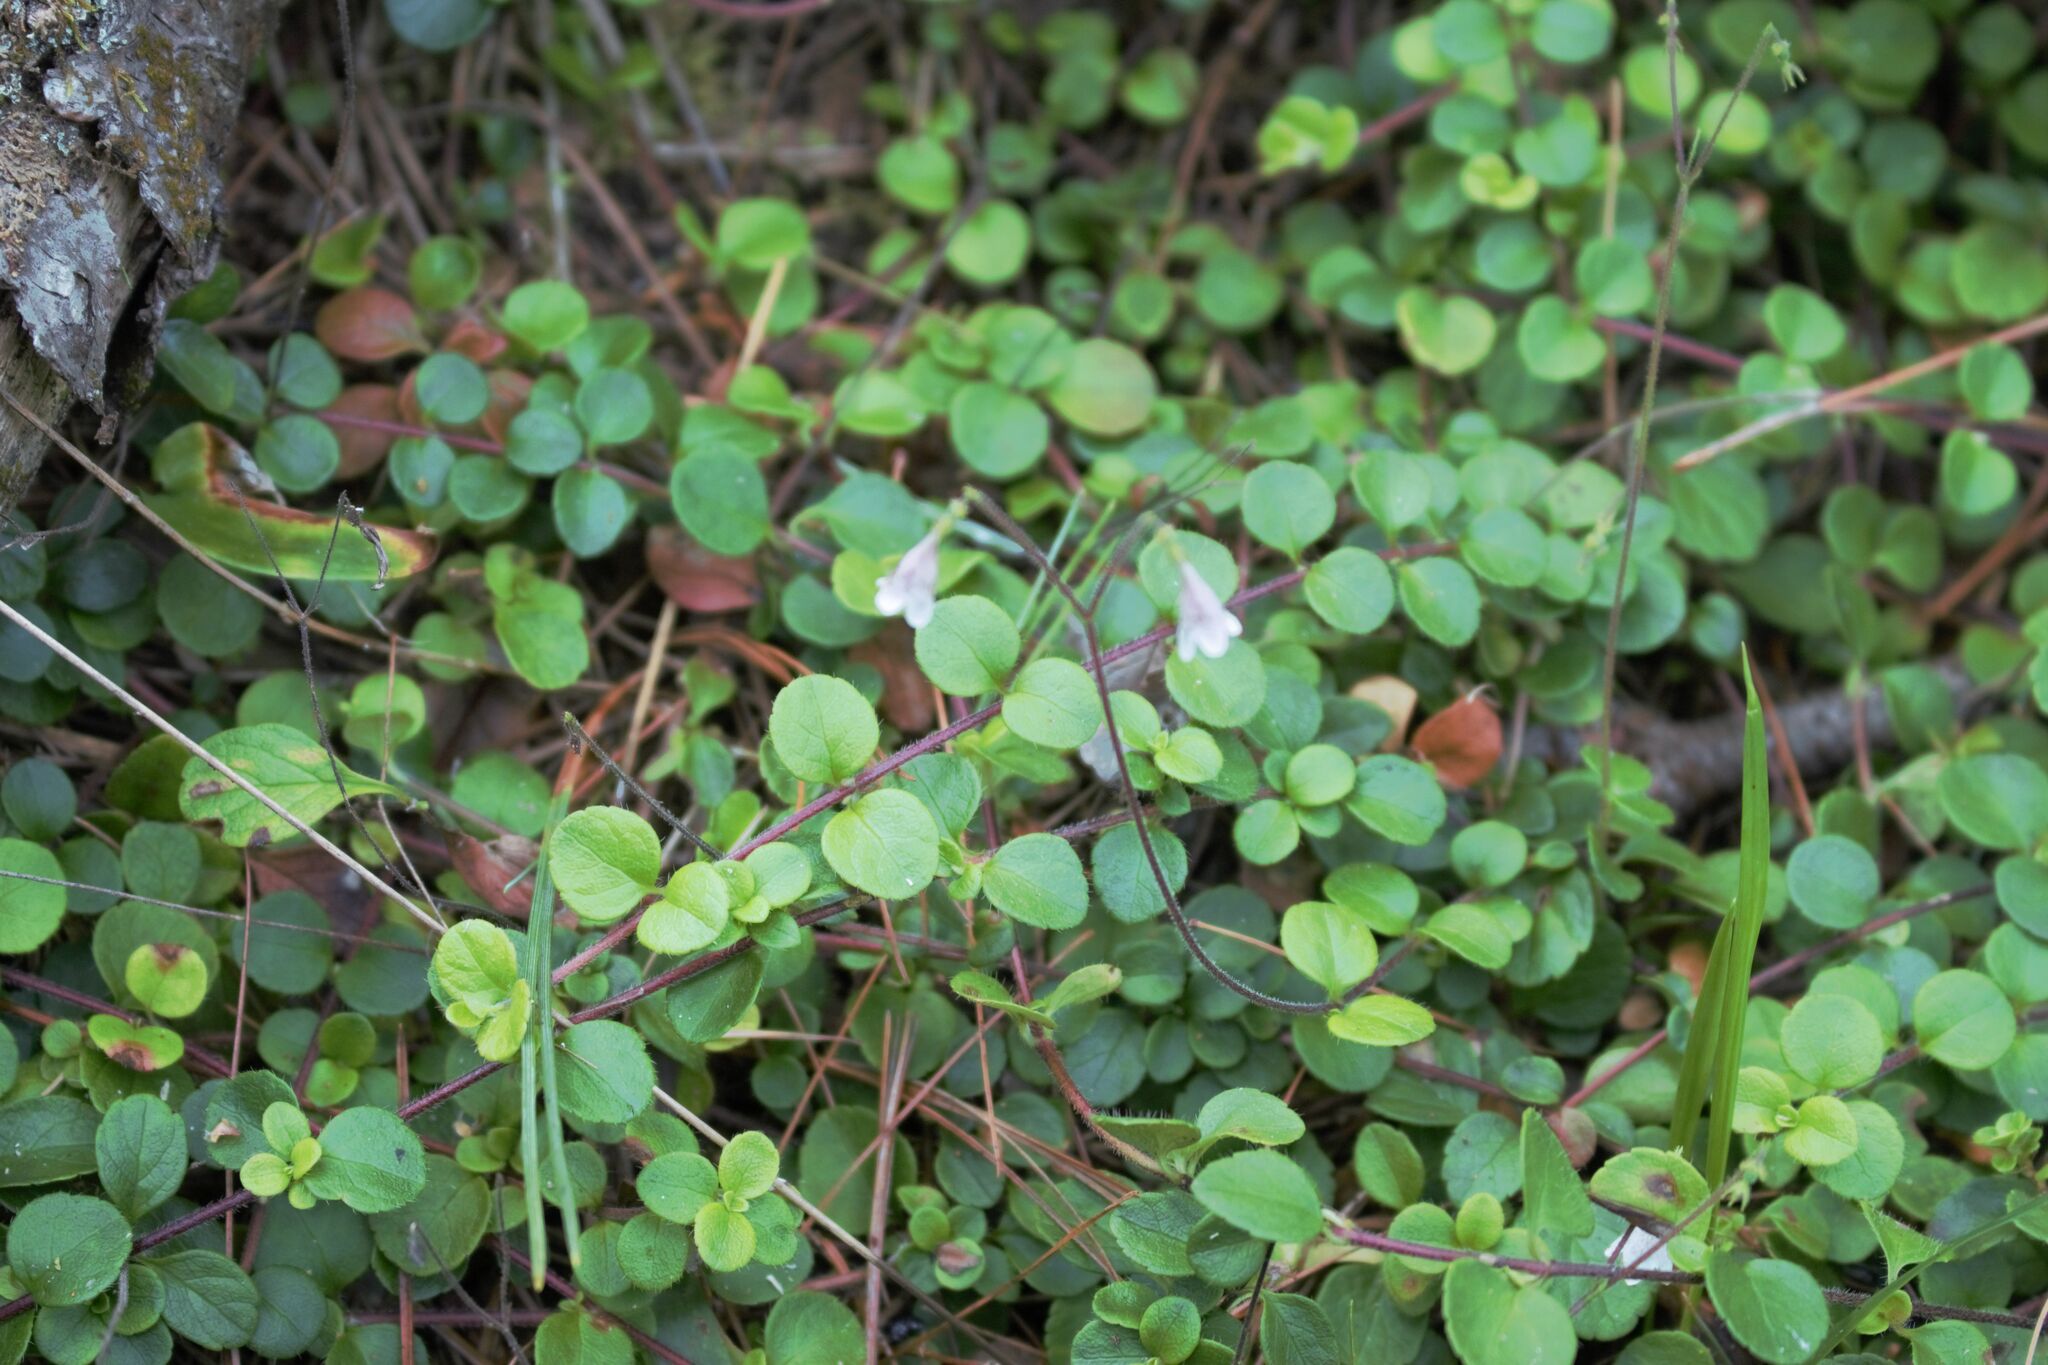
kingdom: Plantae
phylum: Tracheophyta
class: Magnoliopsida
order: Dipsacales
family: Caprifoliaceae
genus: Linnaea
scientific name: Linnaea borealis
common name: Twinflower
